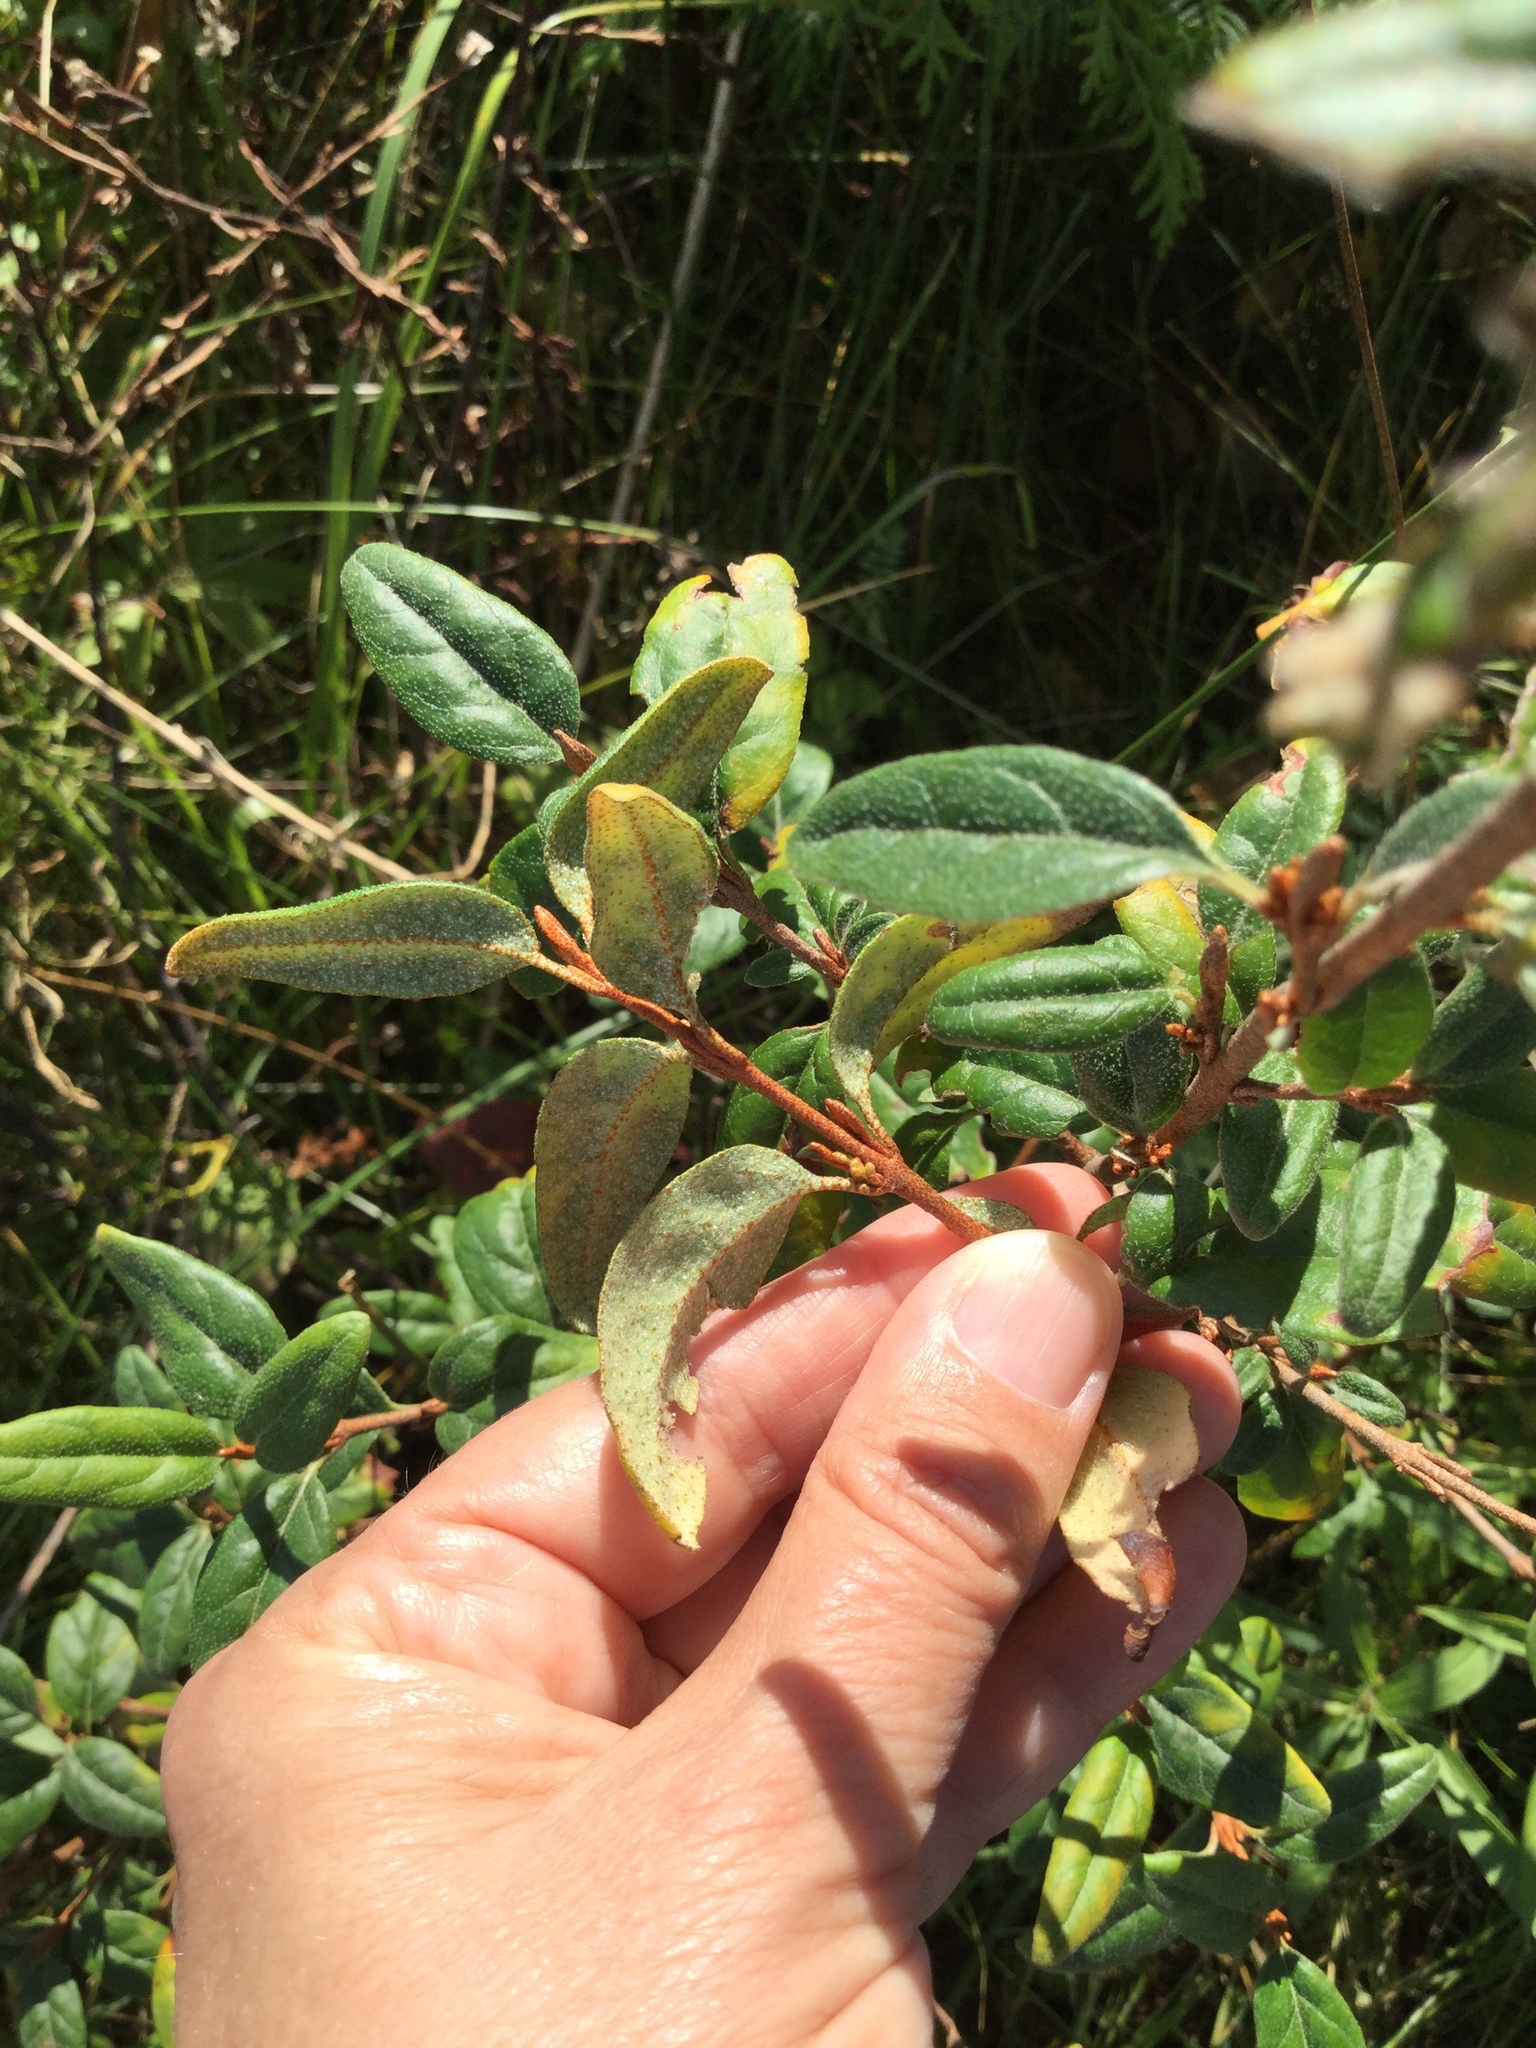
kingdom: Plantae
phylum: Tracheophyta
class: Magnoliopsida
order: Rosales
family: Elaeagnaceae
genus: Shepherdia
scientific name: Shepherdia canadensis
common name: Soapberry
